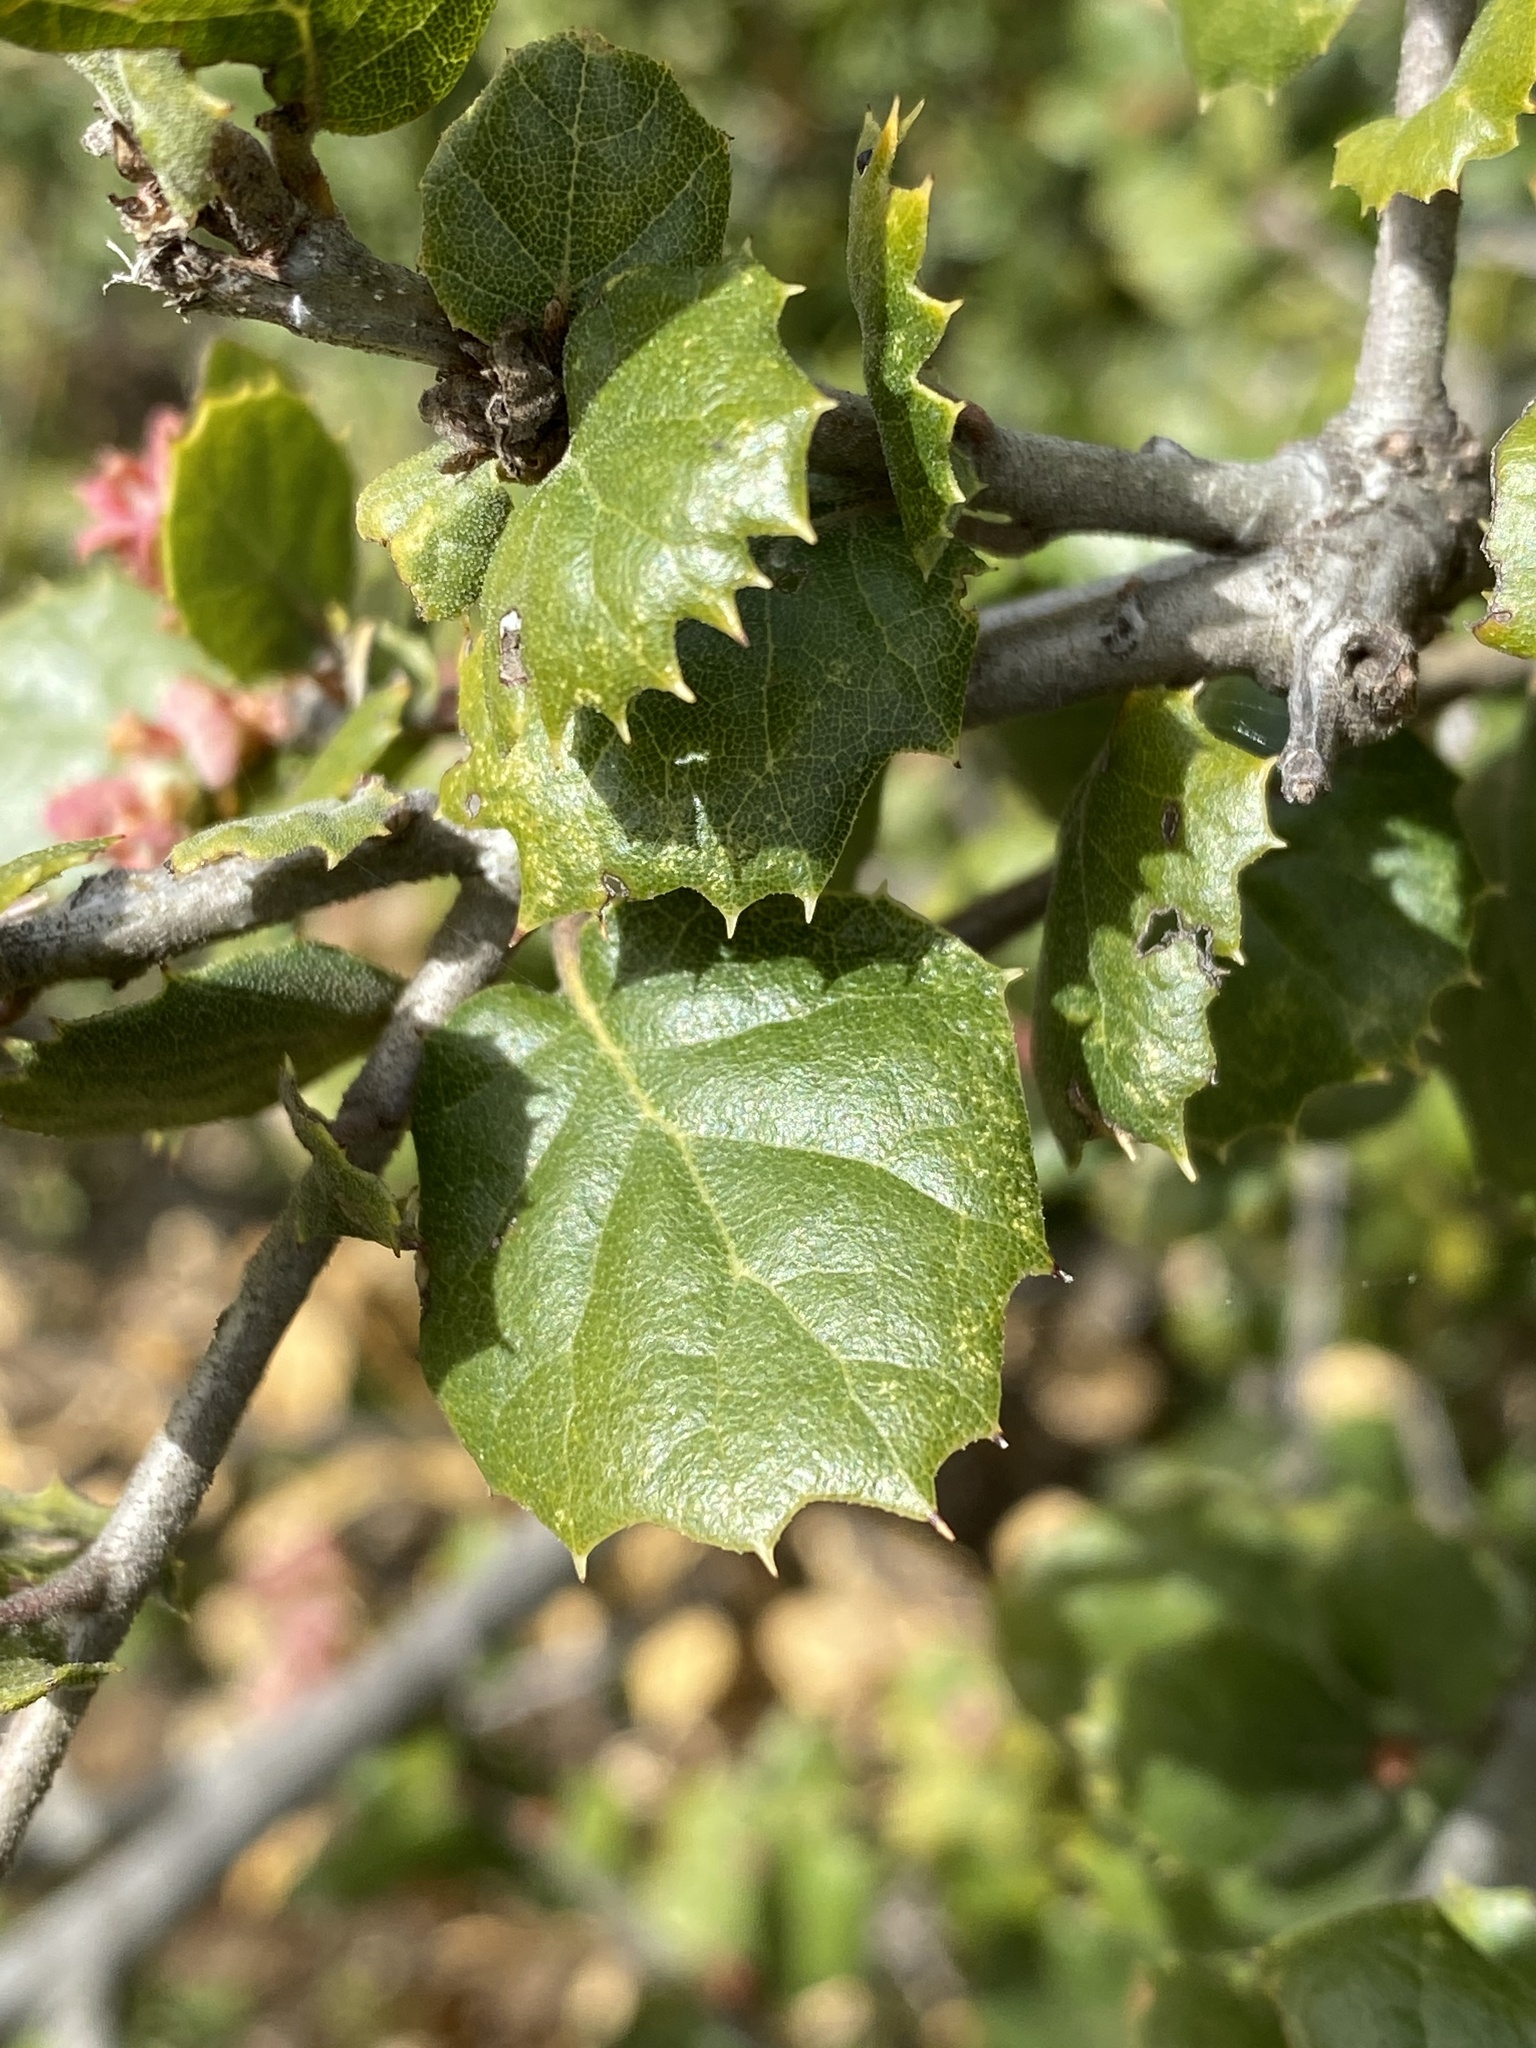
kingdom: Plantae
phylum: Tracheophyta
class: Magnoliopsida
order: Fagales
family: Fagaceae
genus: Quercus
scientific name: Quercus agrifolia
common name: California live oak
